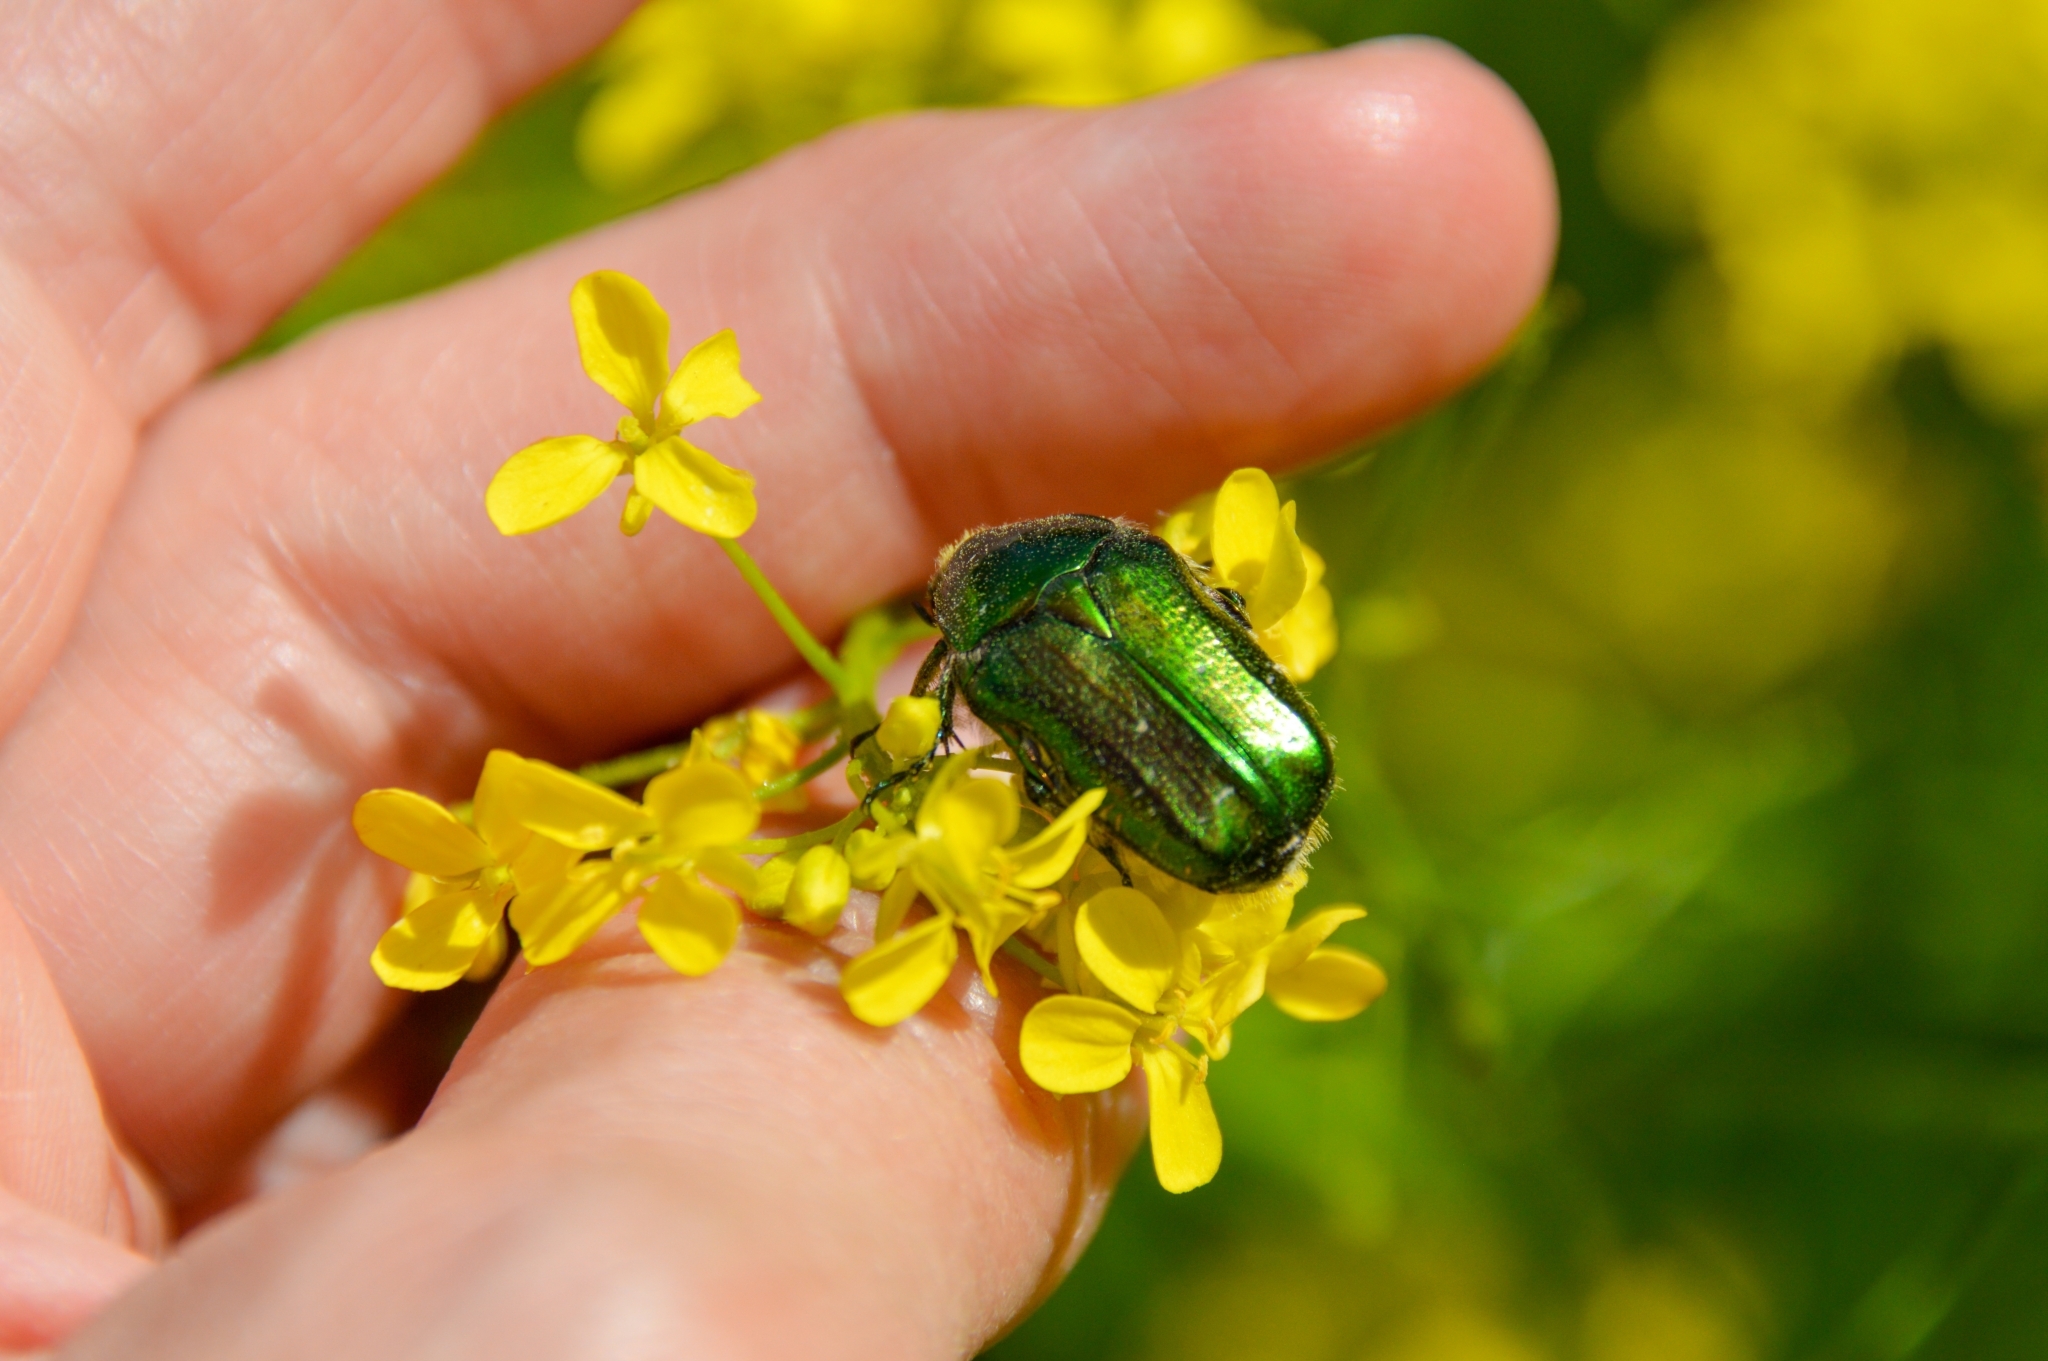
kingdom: Animalia
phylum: Arthropoda
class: Insecta
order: Coleoptera
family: Scarabaeidae
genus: Cetonia
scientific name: Cetonia aurata
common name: Rose chafer
